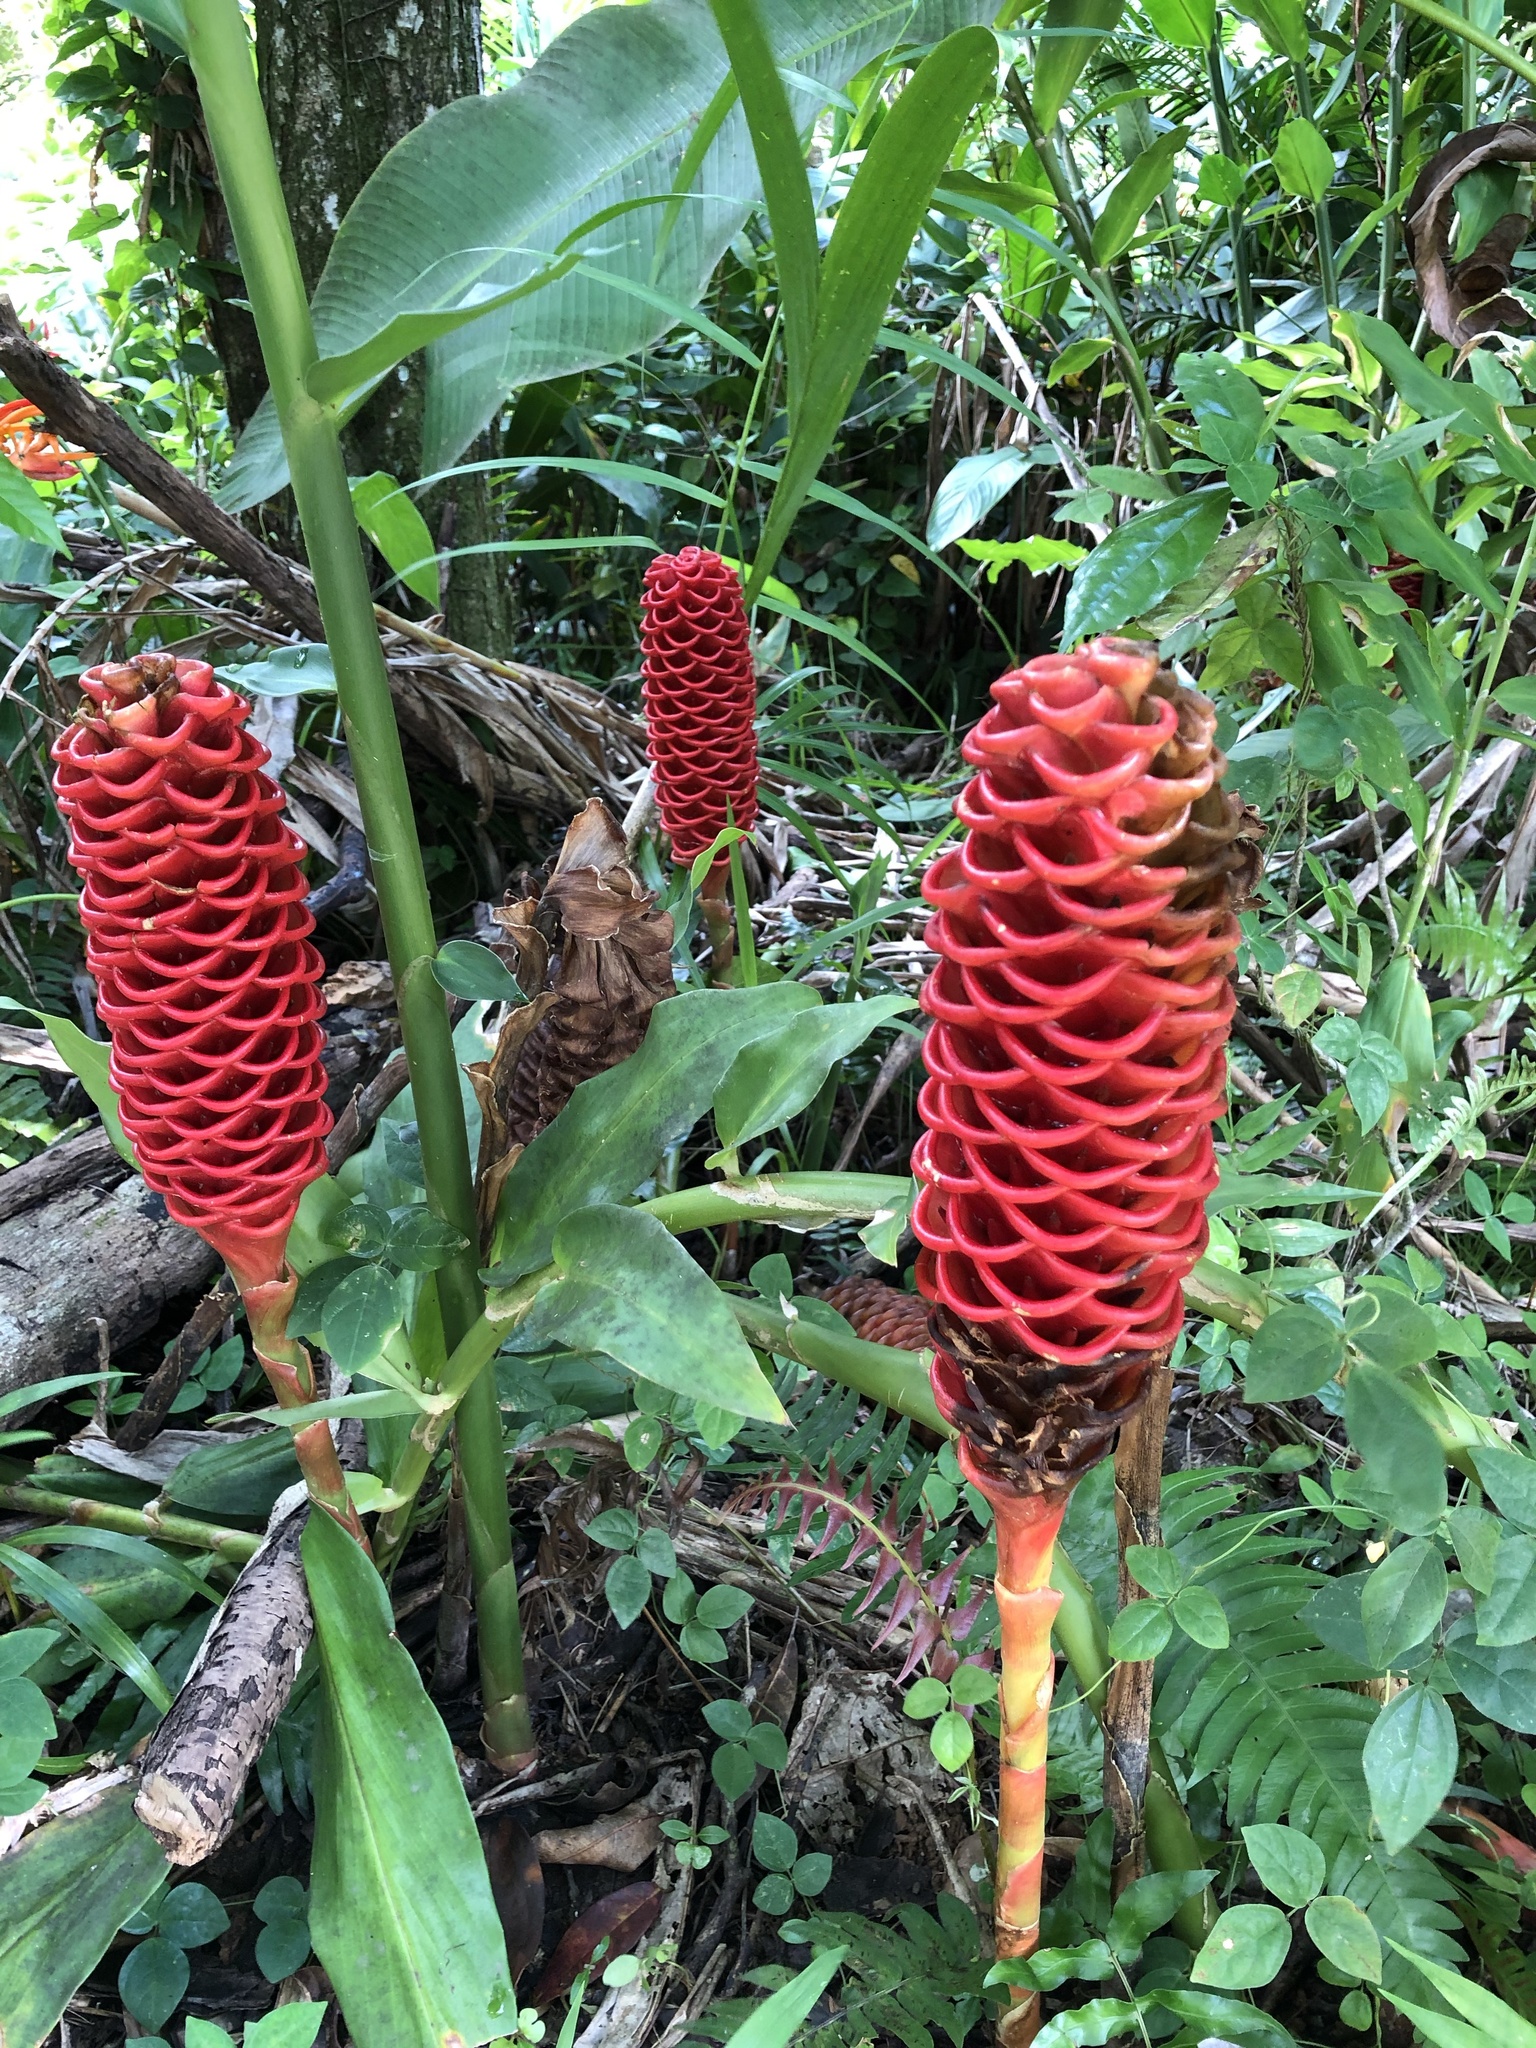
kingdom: Plantae
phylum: Tracheophyta
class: Liliopsida
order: Zingiberales
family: Zingiberaceae
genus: Zingiber
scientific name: Zingiber spectabile
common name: Beehive ginger
